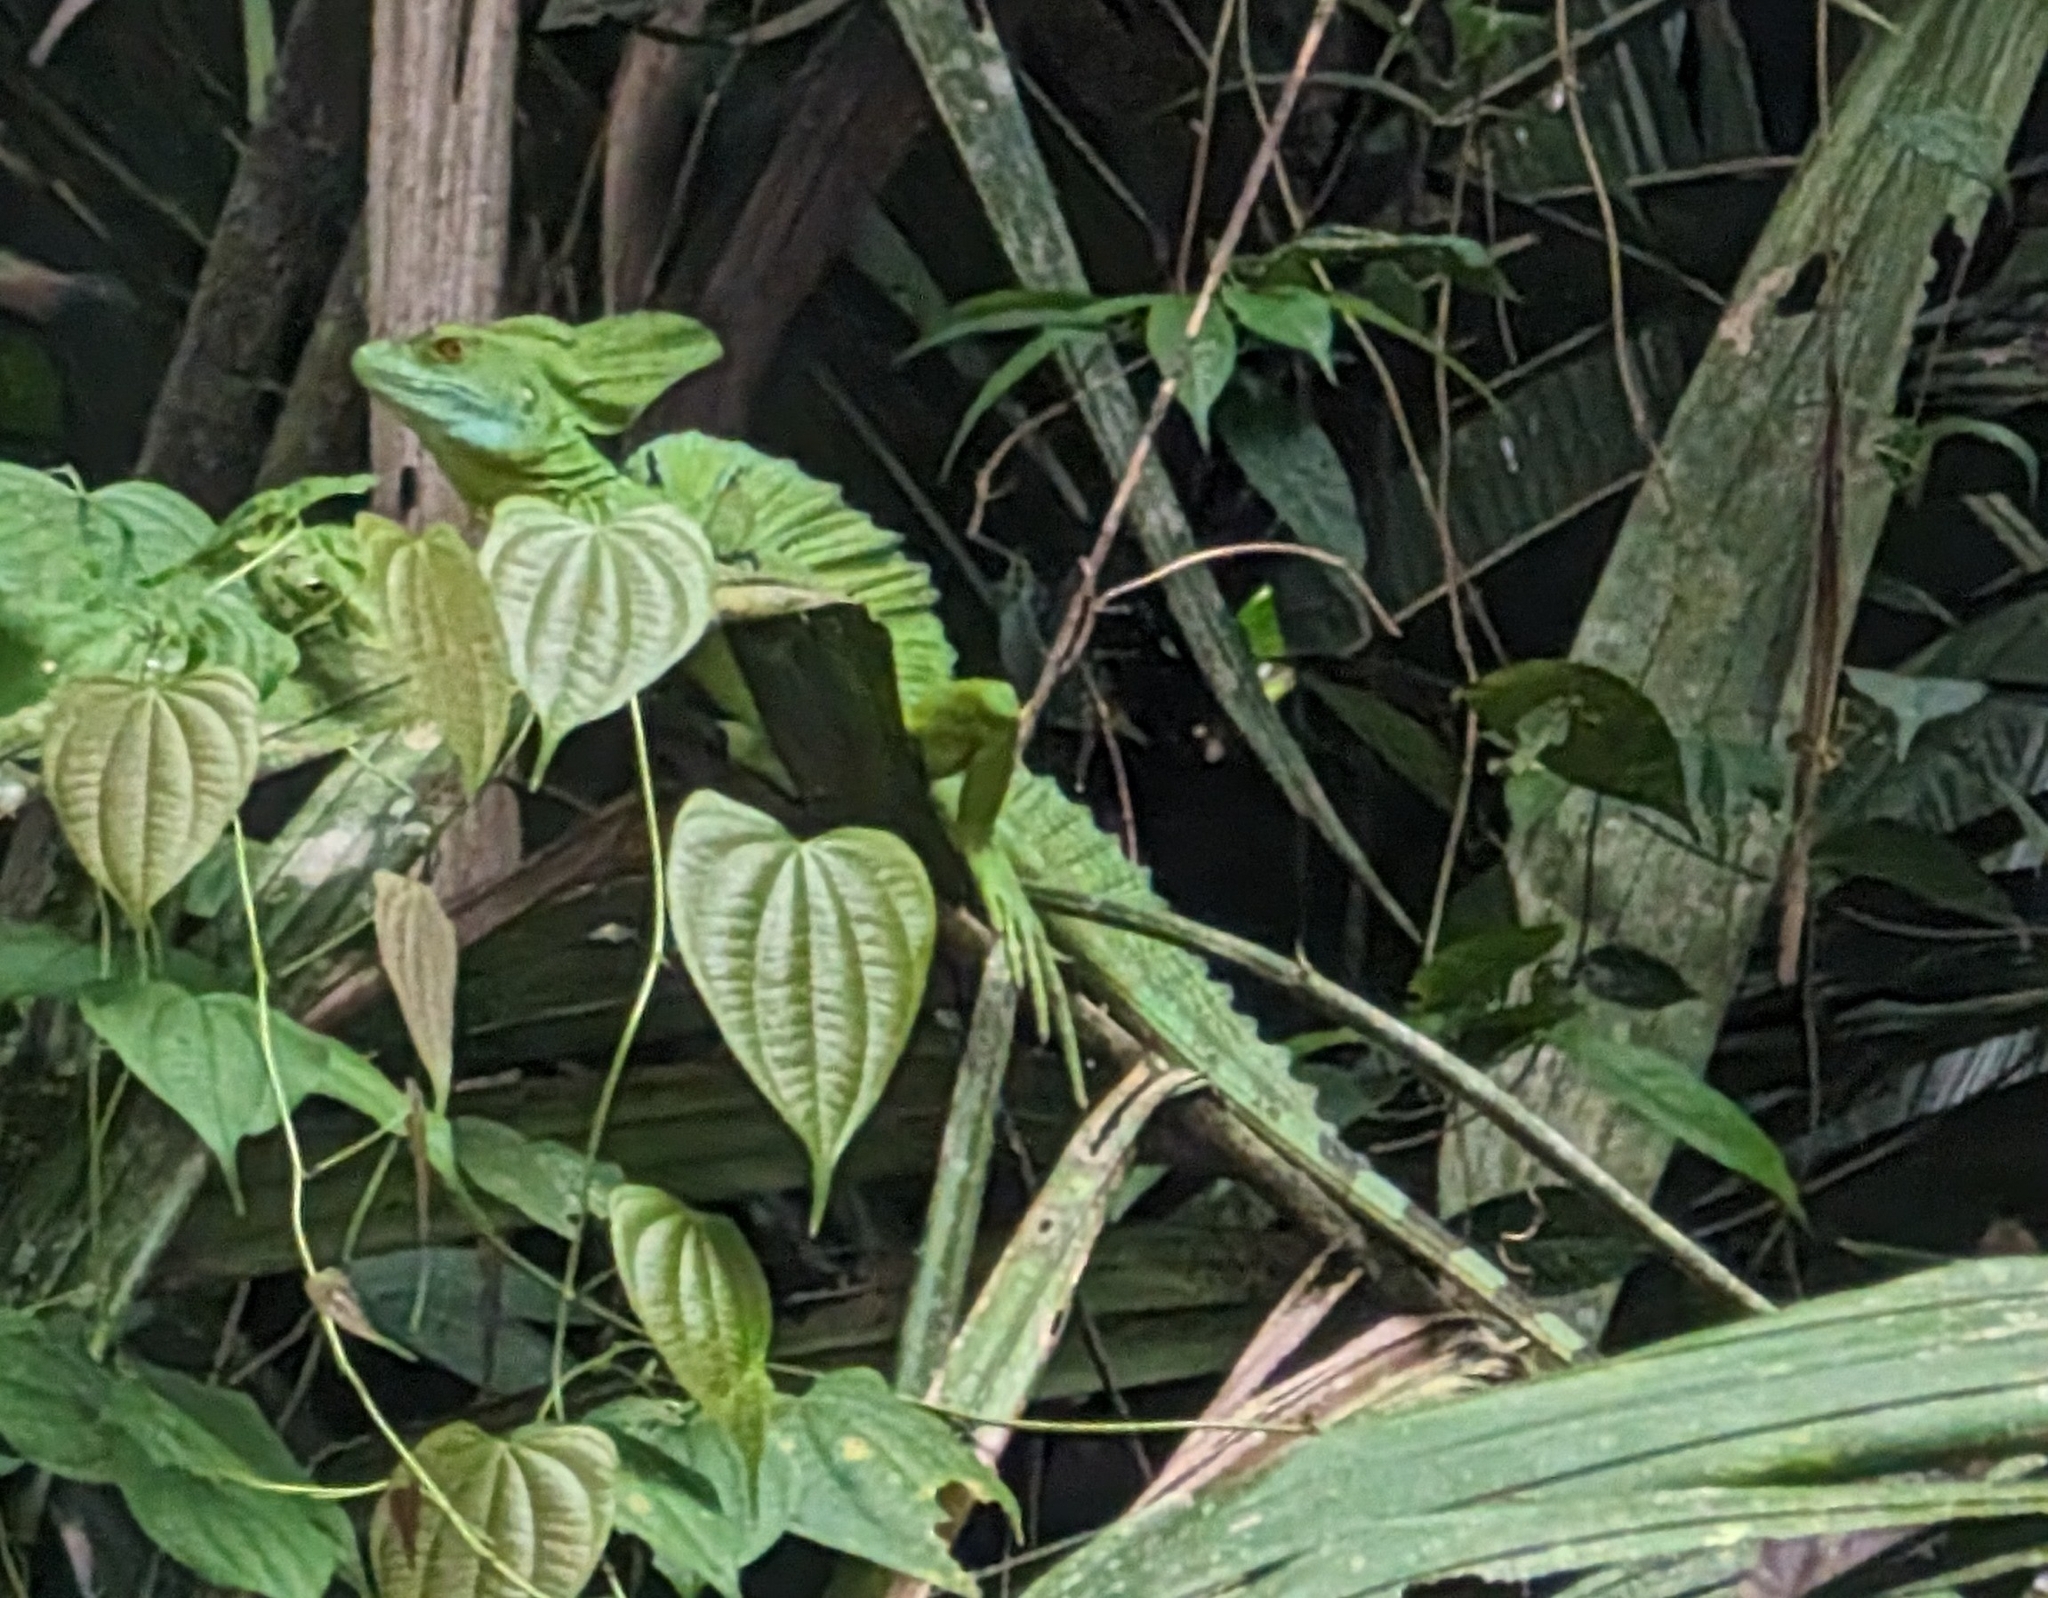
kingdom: Animalia
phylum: Chordata
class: Squamata
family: Corytophanidae
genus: Basiliscus
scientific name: Basiliscus plumifrons
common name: Green basilisk
